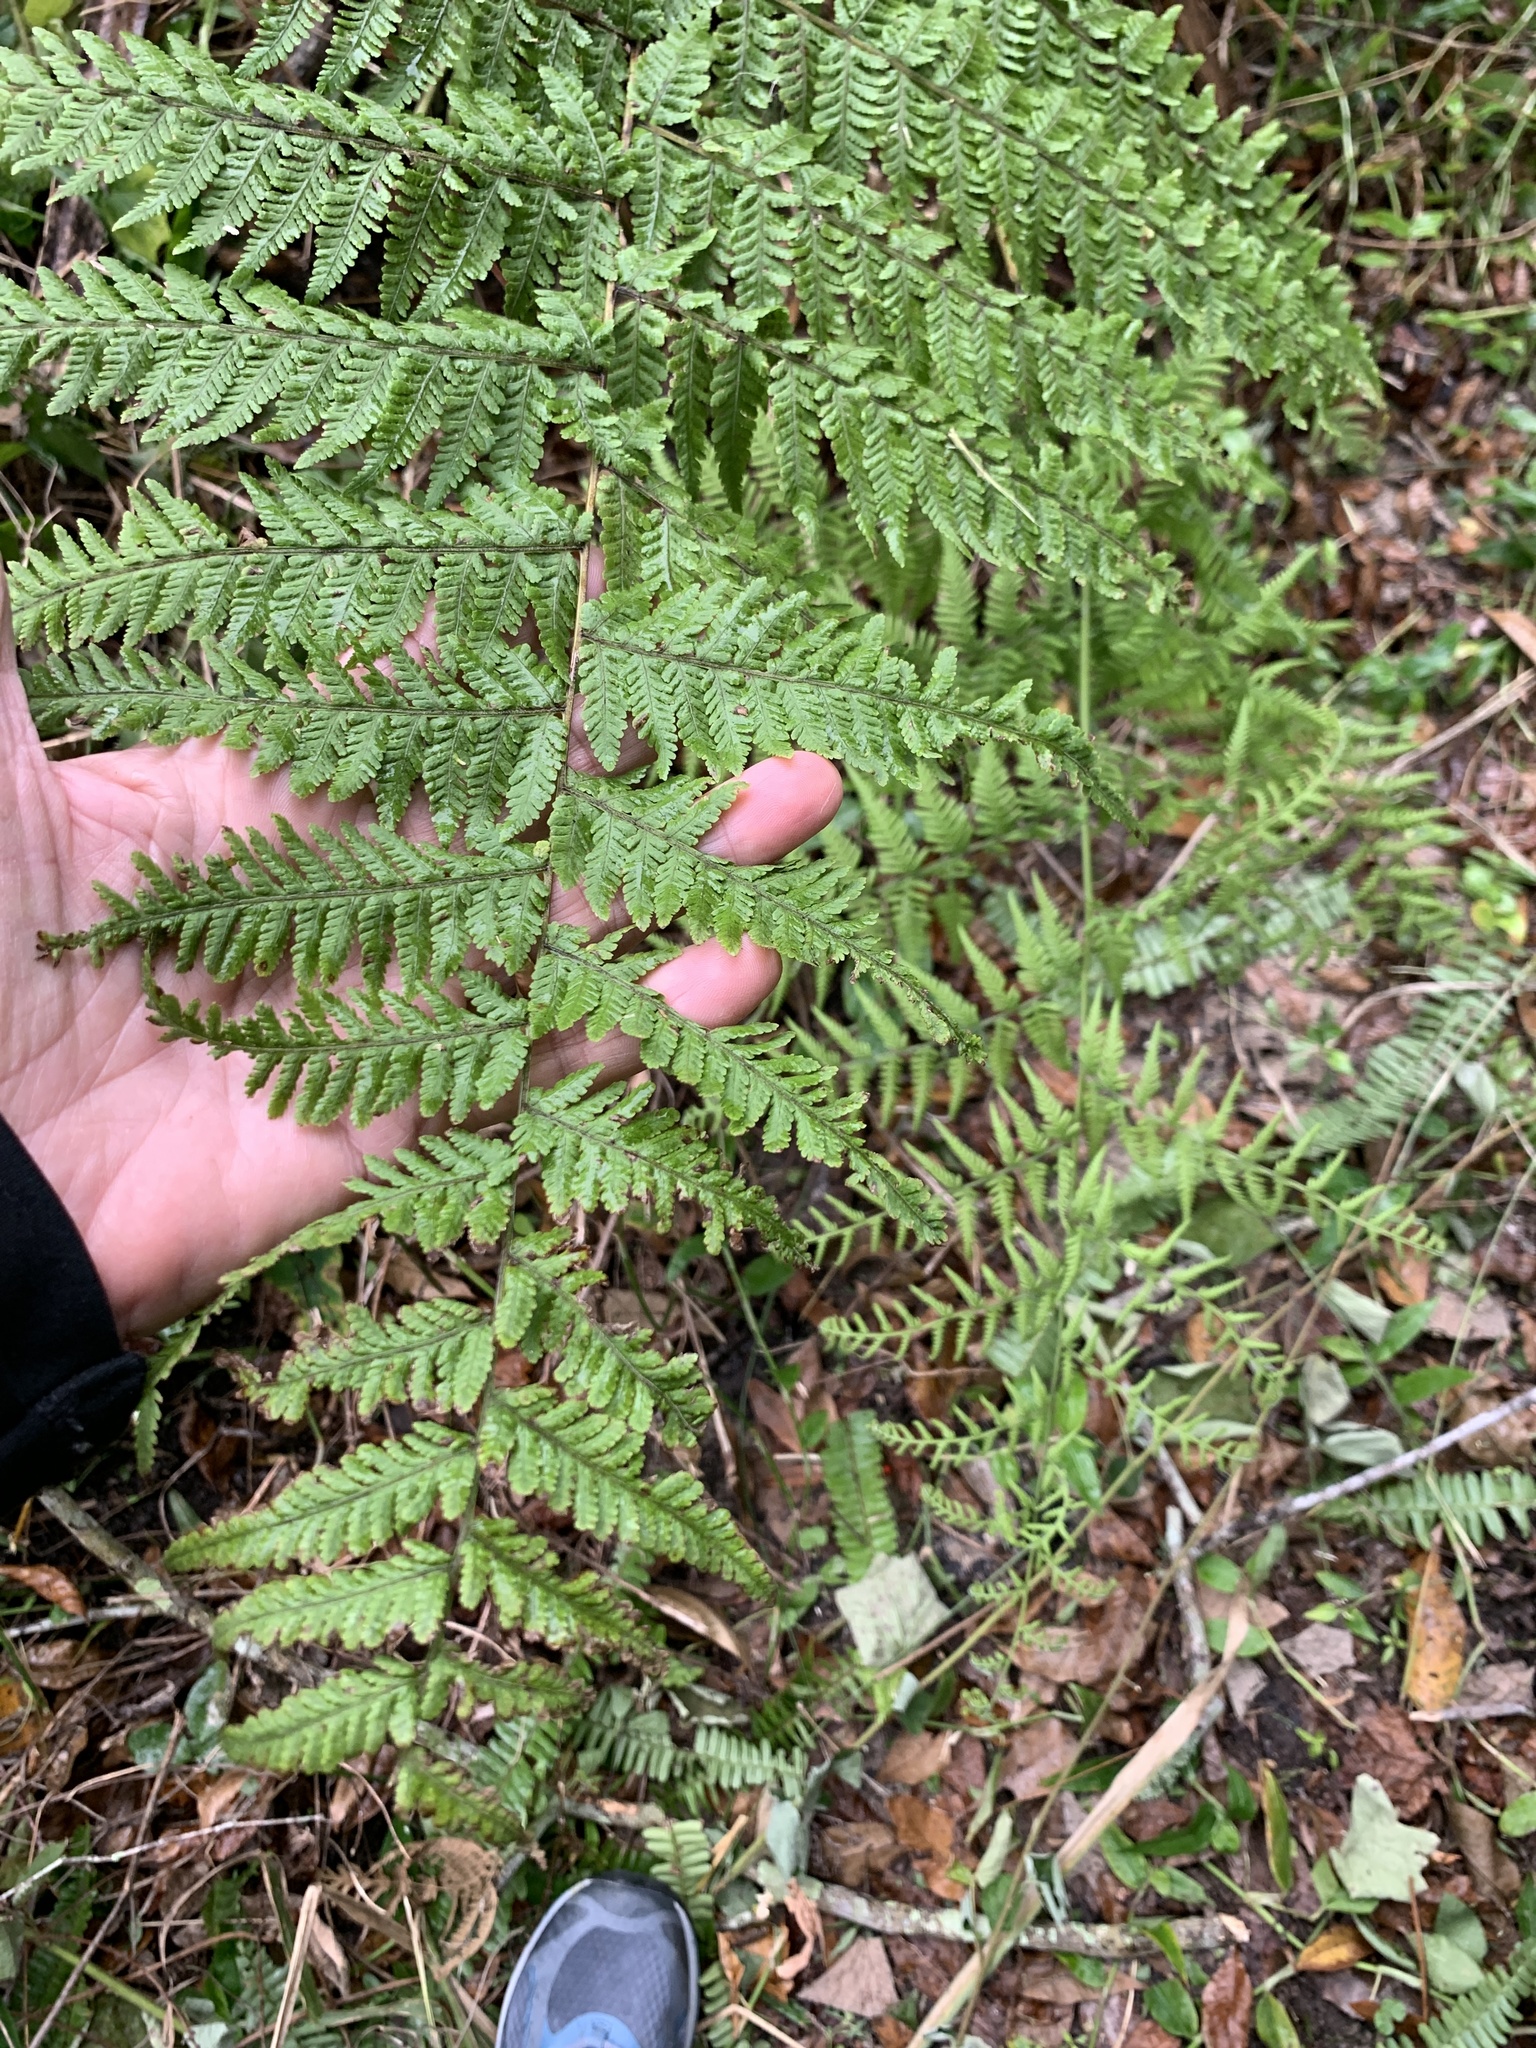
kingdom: Plantae
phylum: Tracheophyta
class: Polypodiopsida
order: Polypodiales
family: Thelypteridaceae
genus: Macrothelypteris
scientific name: Macrothelypteris torresiana
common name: Swordfern
